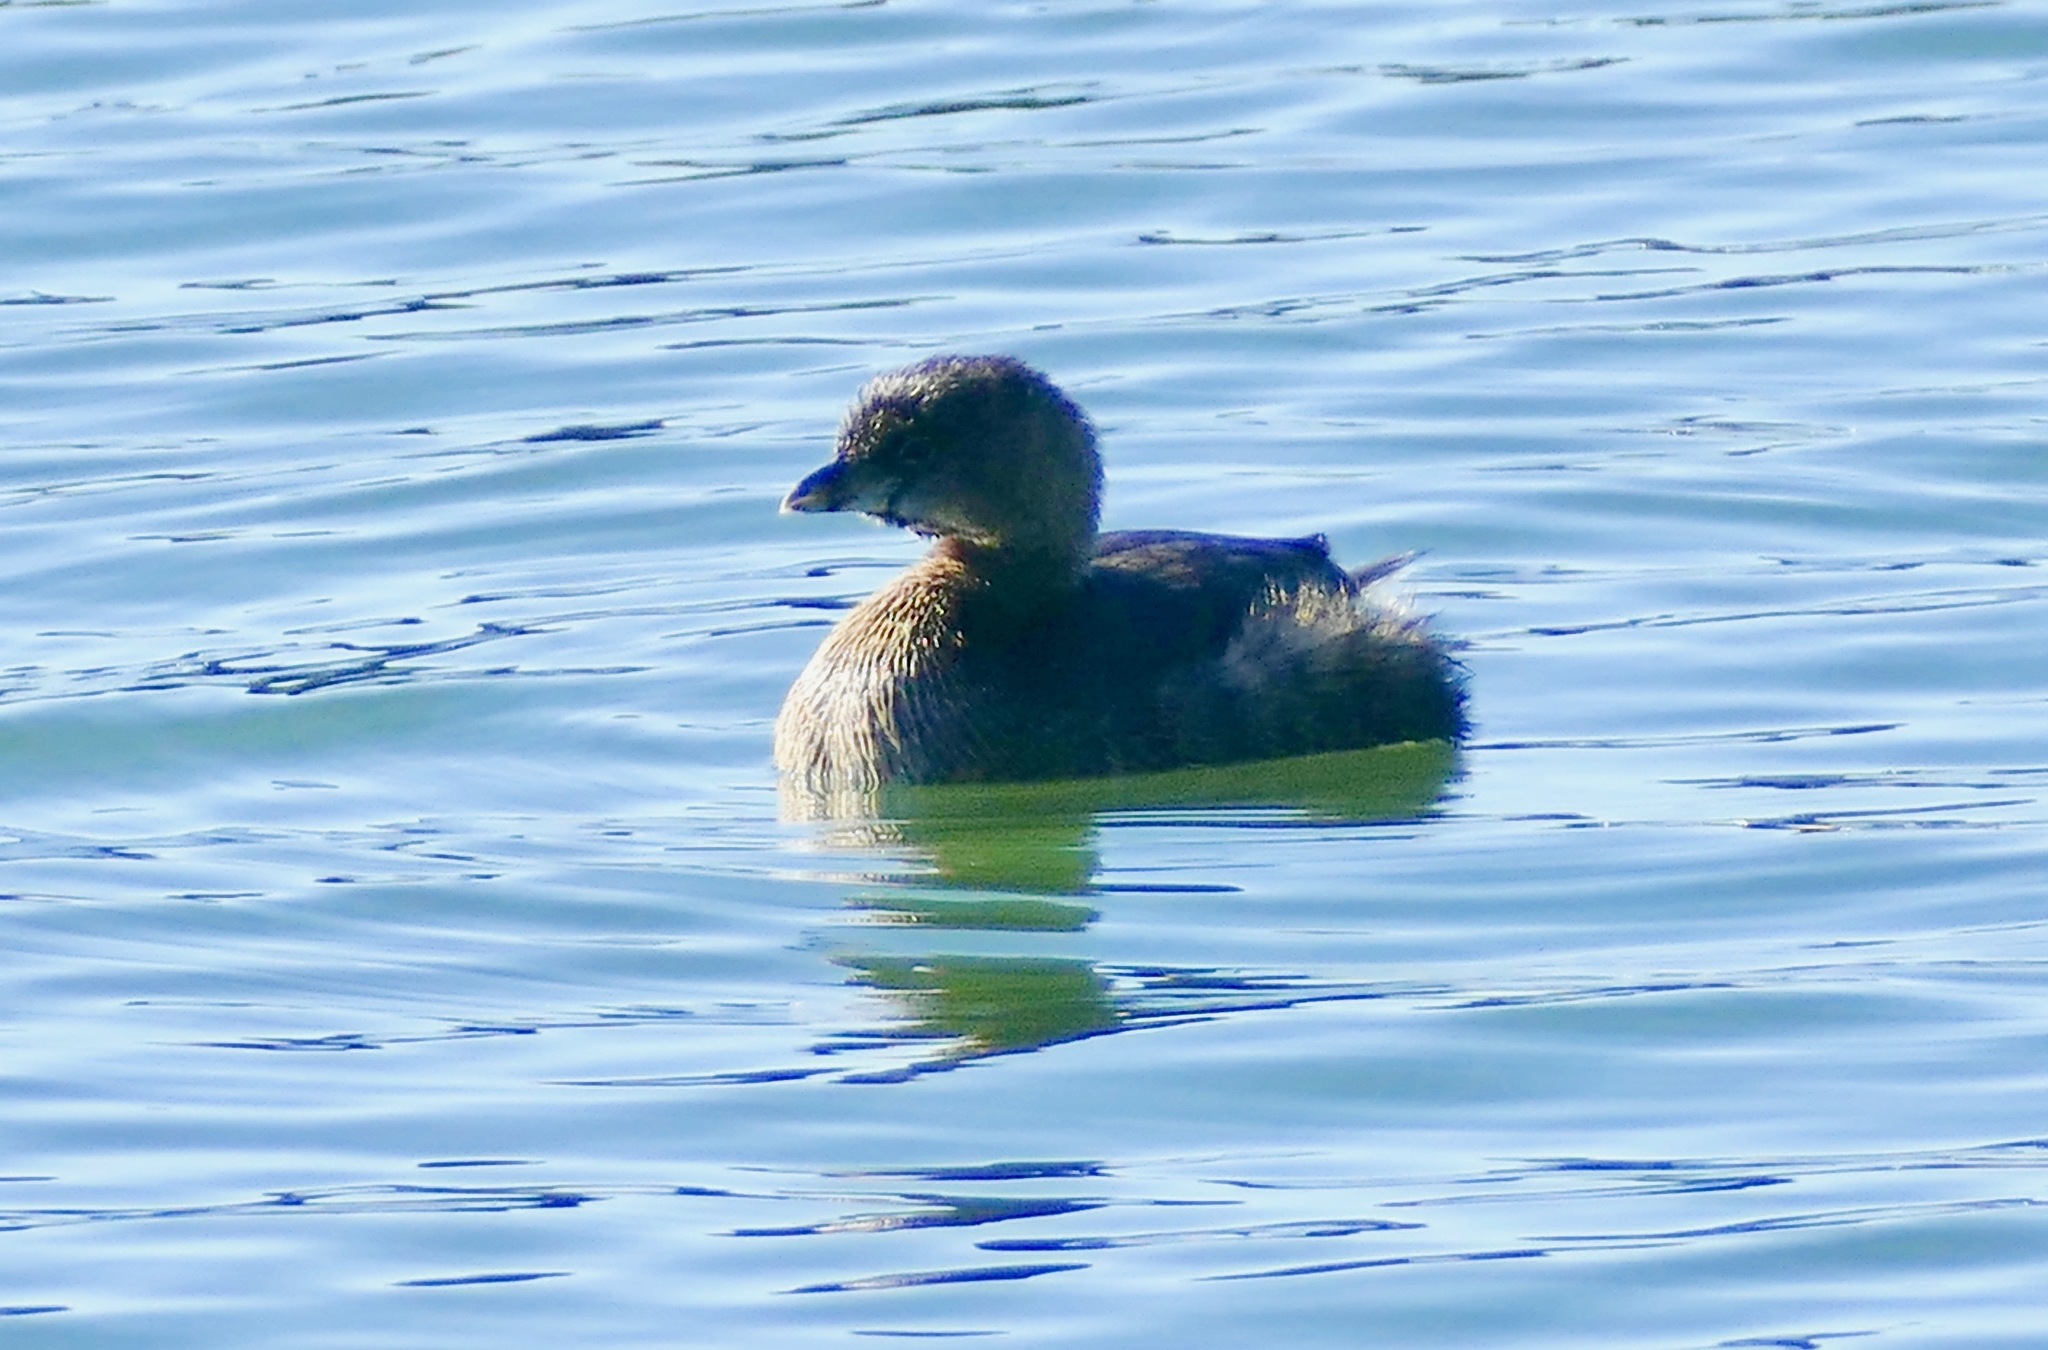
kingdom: Animalia
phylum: Chordata
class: Aves
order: Podicipediformes
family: Podicipedidae
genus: Podilymbus
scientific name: Podilymbus podiceps
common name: Pied-billed grebe
